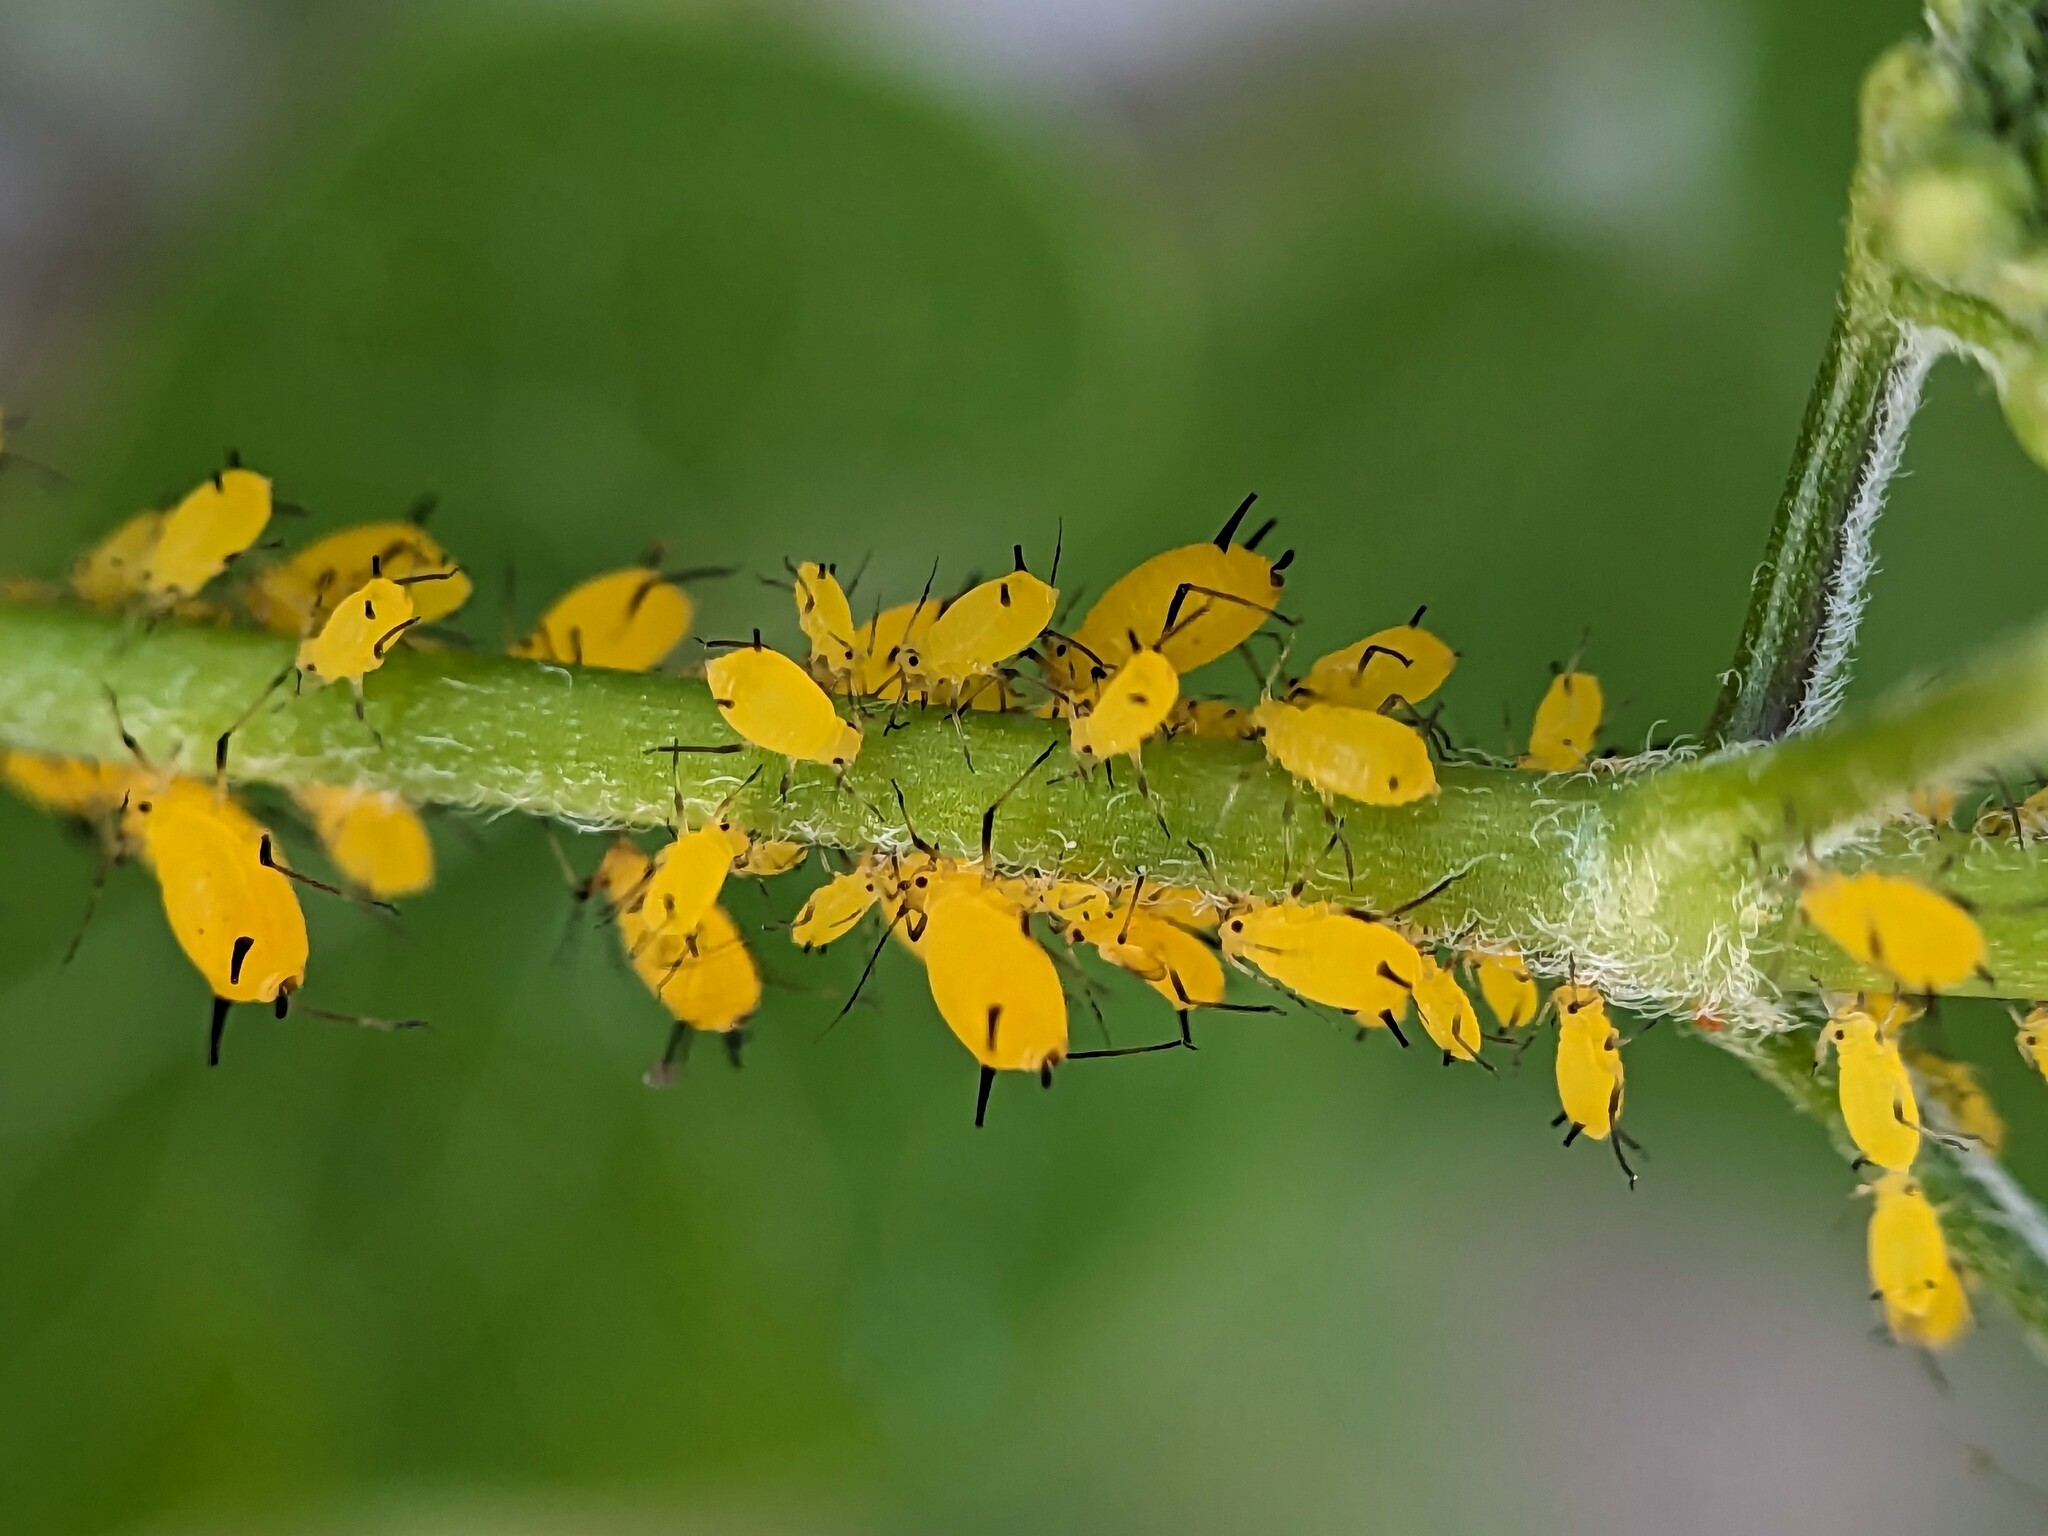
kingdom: Animalia
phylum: Arthropoda
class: Insecta
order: Hemiptera
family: Aphididae
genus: Aphis
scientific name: Aphis nerii
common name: Oleander aphid
